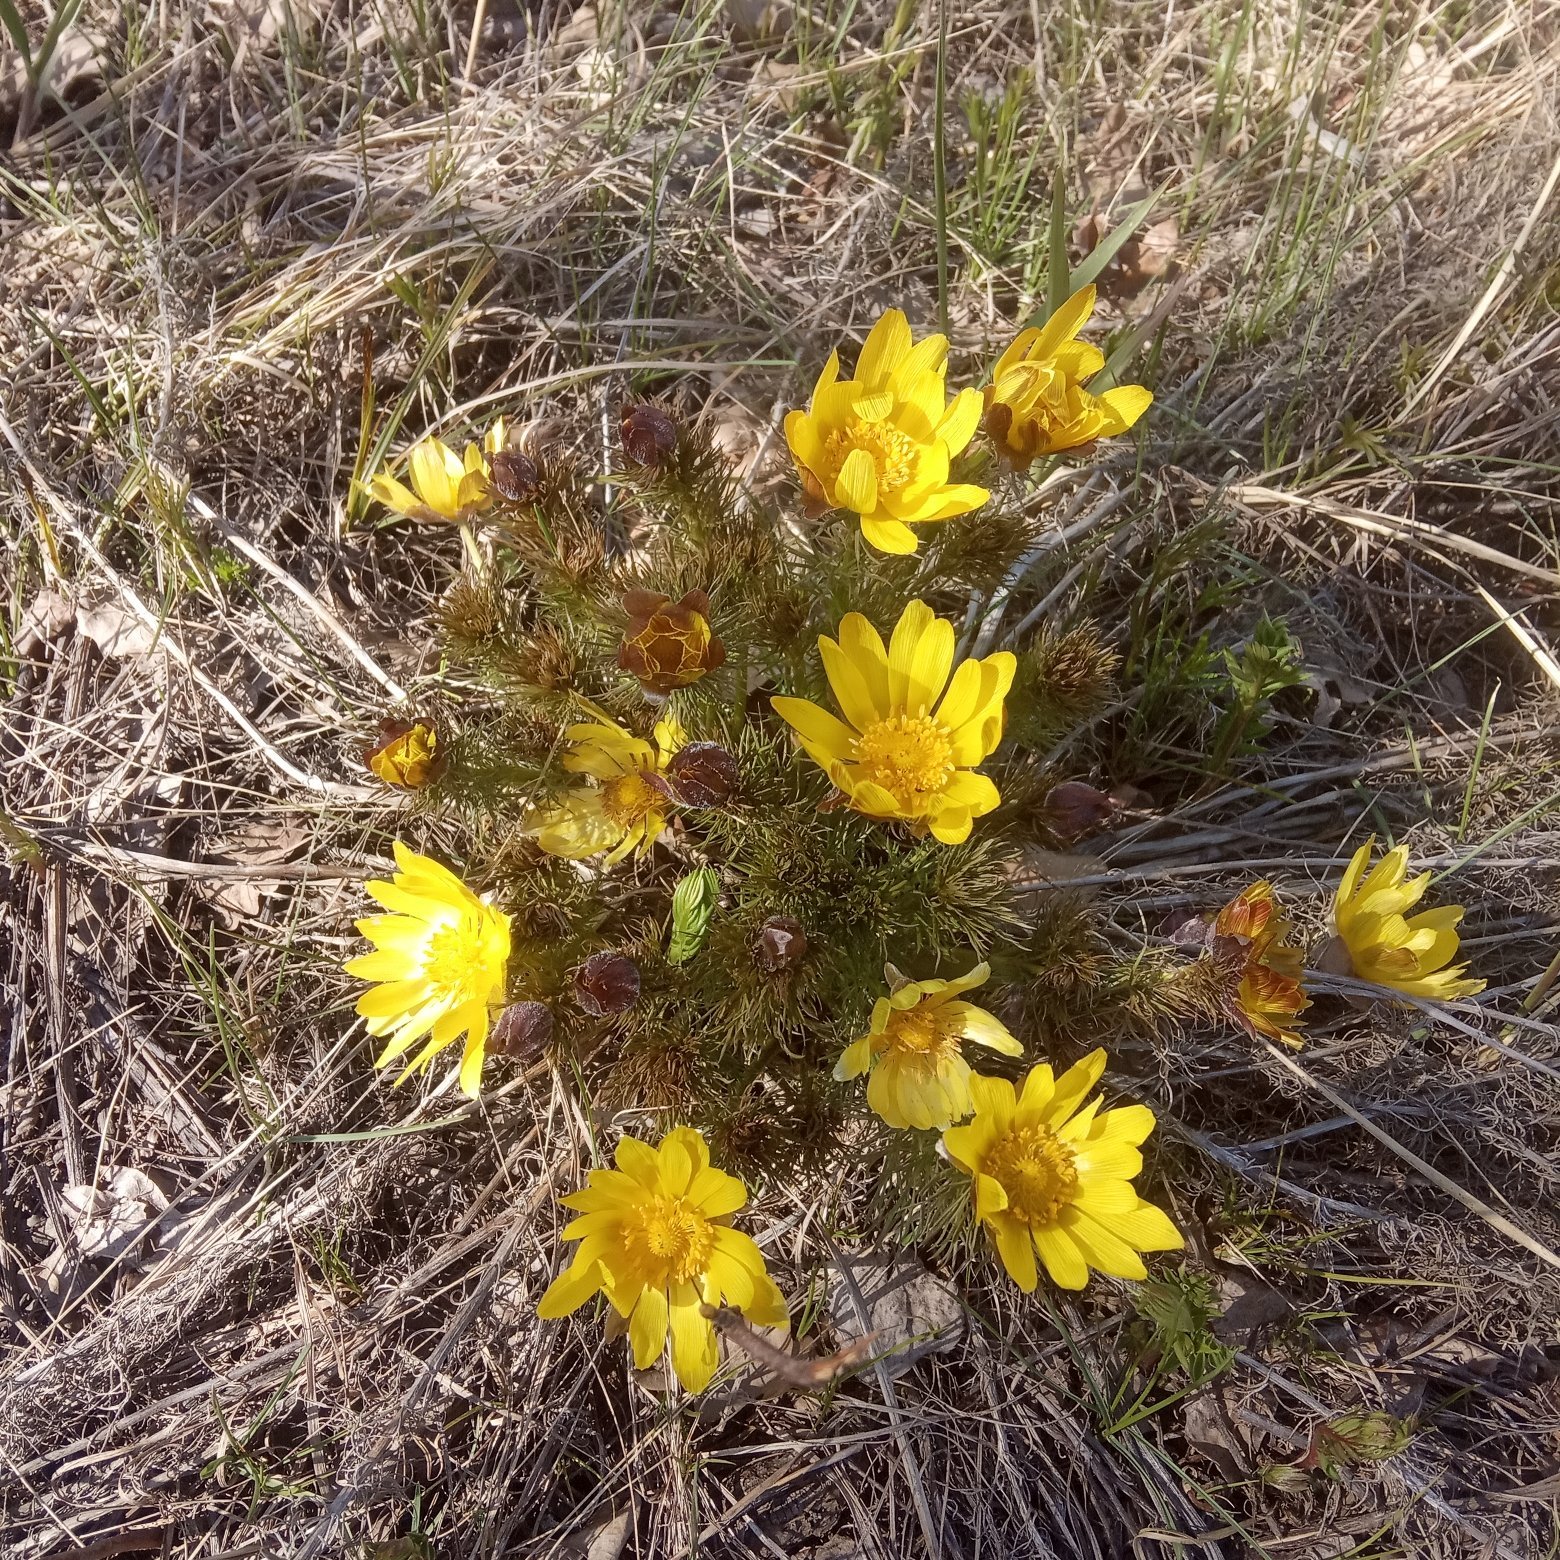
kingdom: Plantae
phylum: Tracheophyta
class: Magnoliopsida
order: Ranunculales
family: Ranunculaceae
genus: Adonis
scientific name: Adonis vernalis
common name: Yellow pheasants-eye
